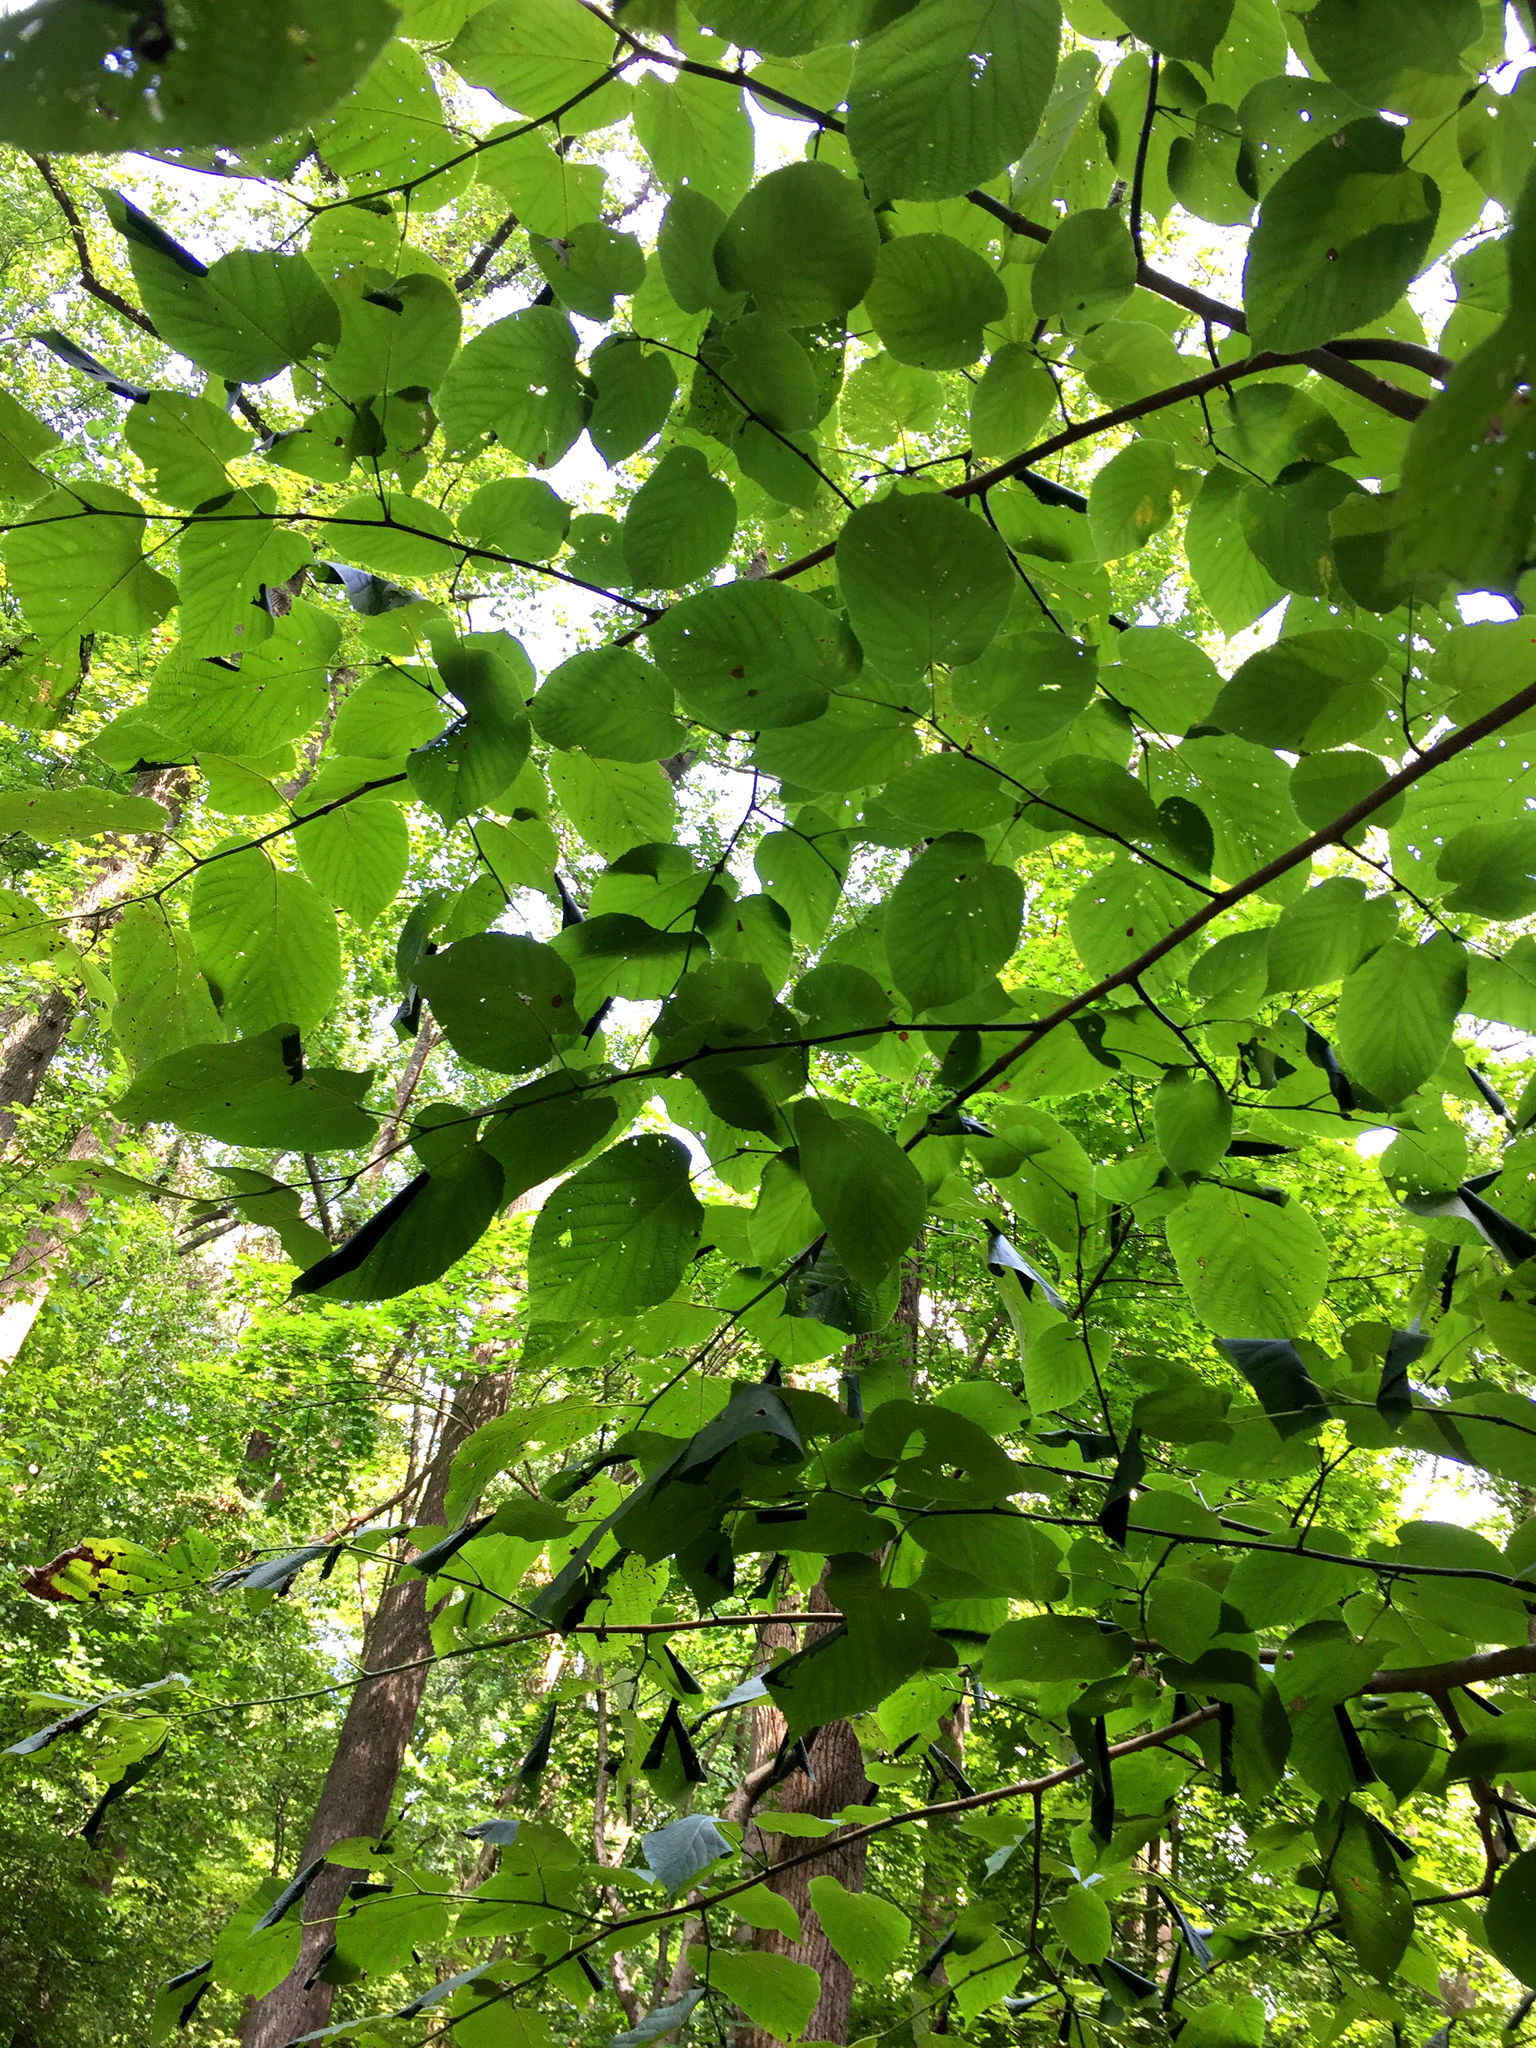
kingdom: Plantae
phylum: Tracheophyta
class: Magnoliopsida
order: Malvales
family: Malvaceae
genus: Tilia
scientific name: Tilia americana
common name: Basswood
